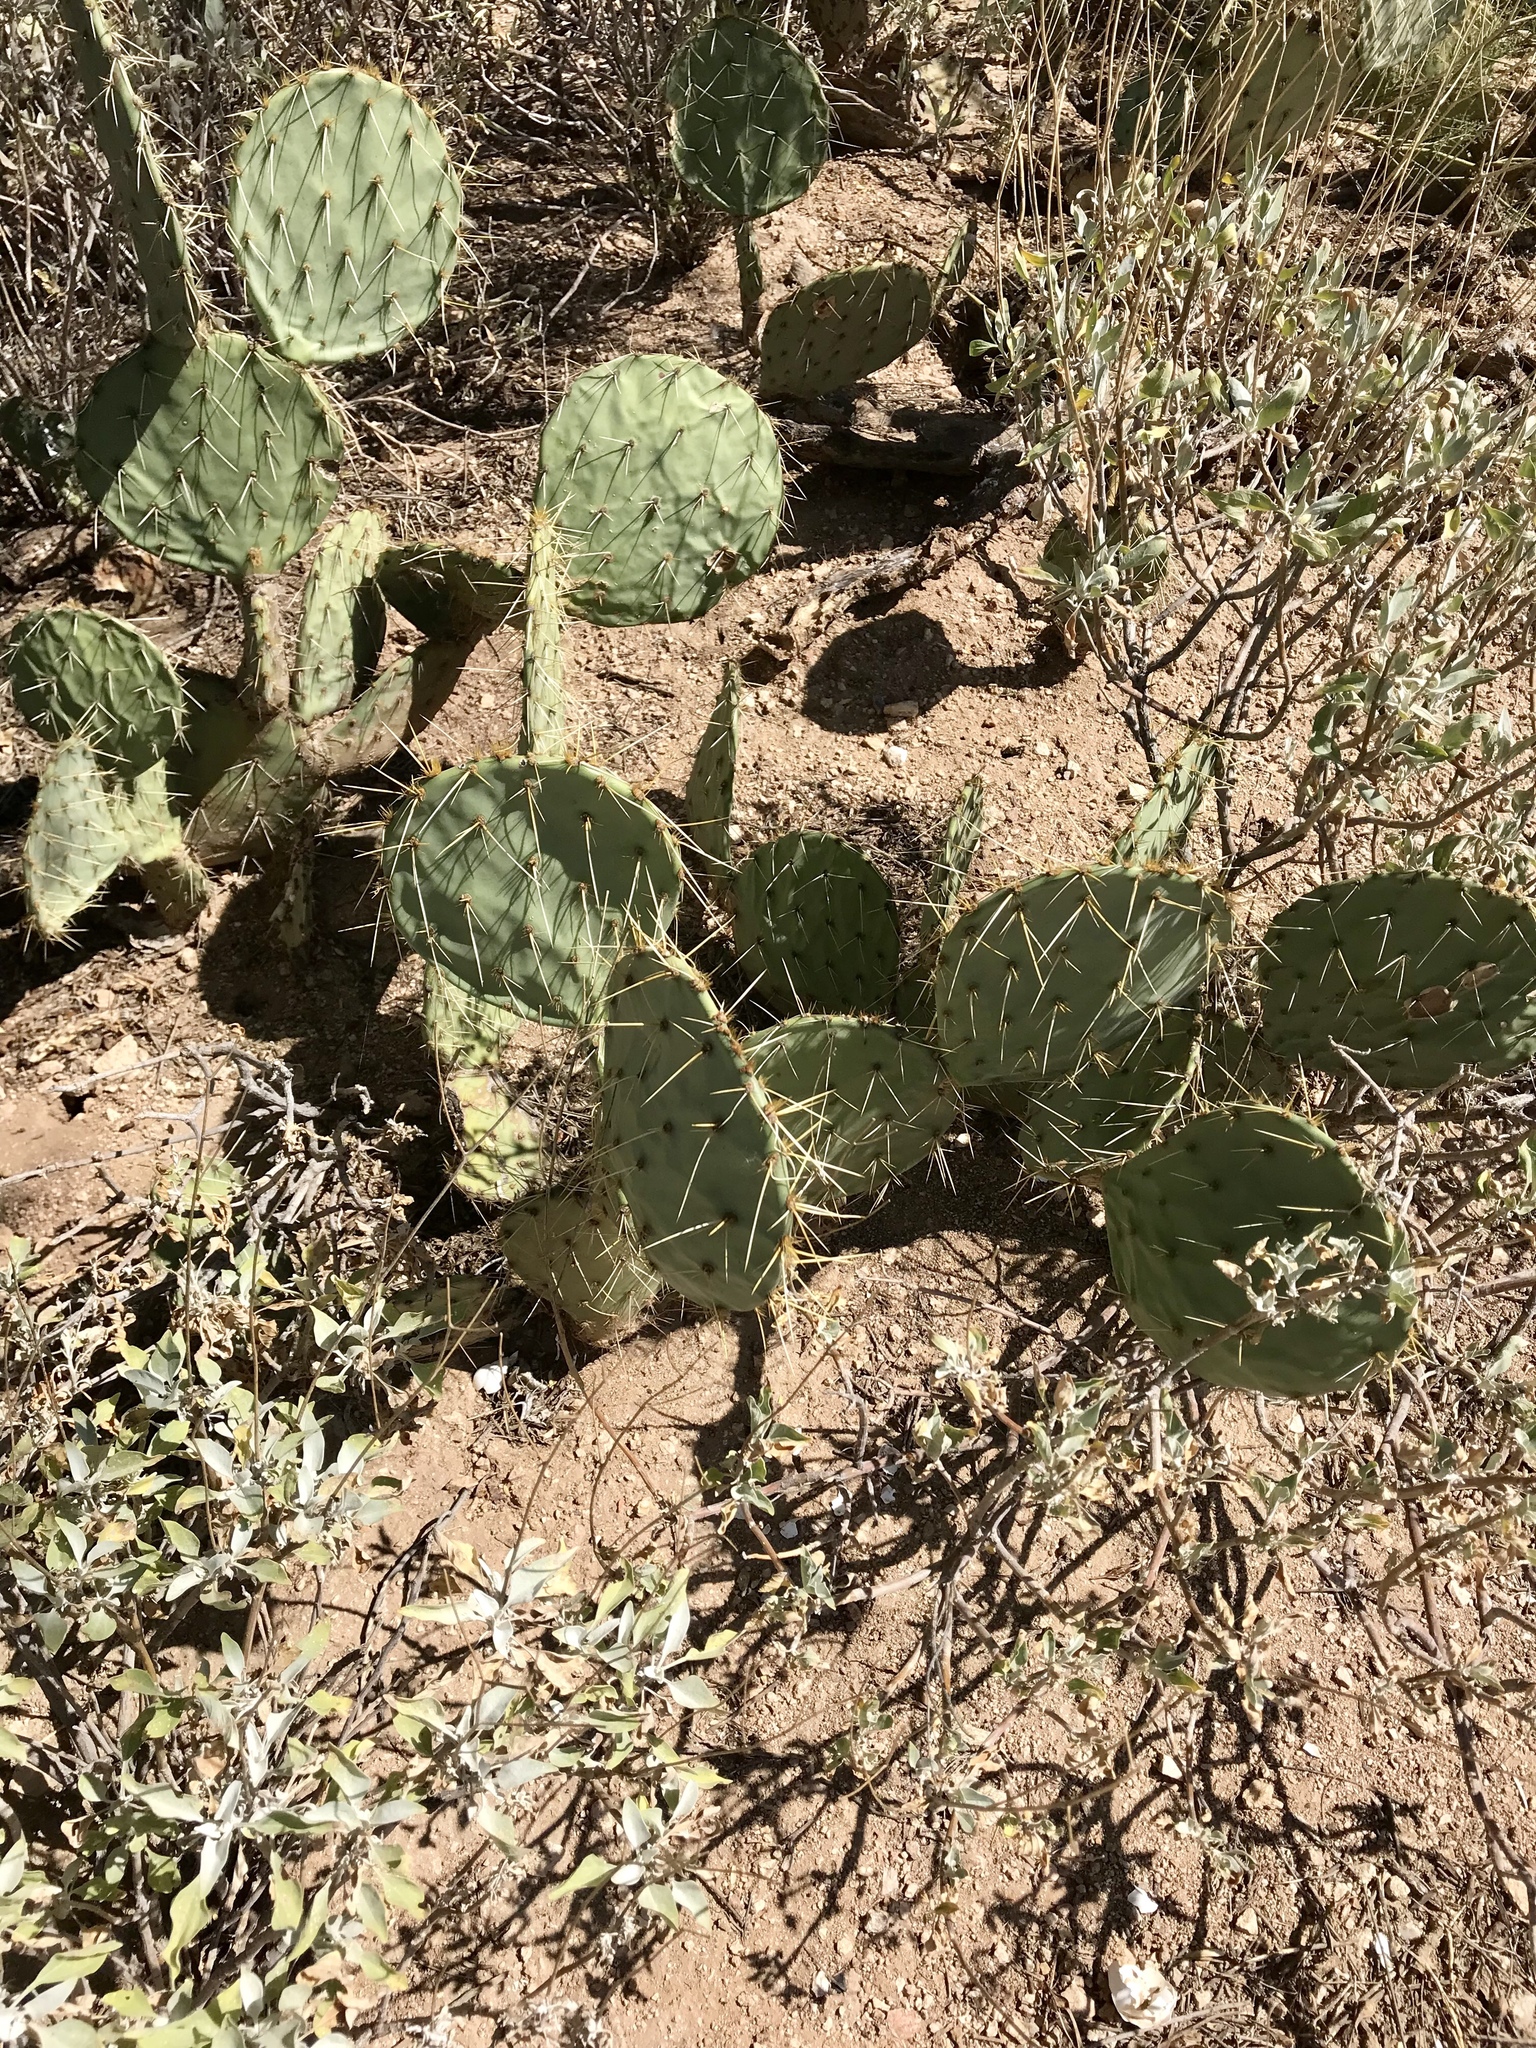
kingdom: Plantae
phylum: Tracheophyta
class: Magnoliopsida
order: Caryophyllales
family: Cactaceae
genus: Opuntia
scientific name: Opuntia phaeacantha
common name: New mexico prickly-pear
